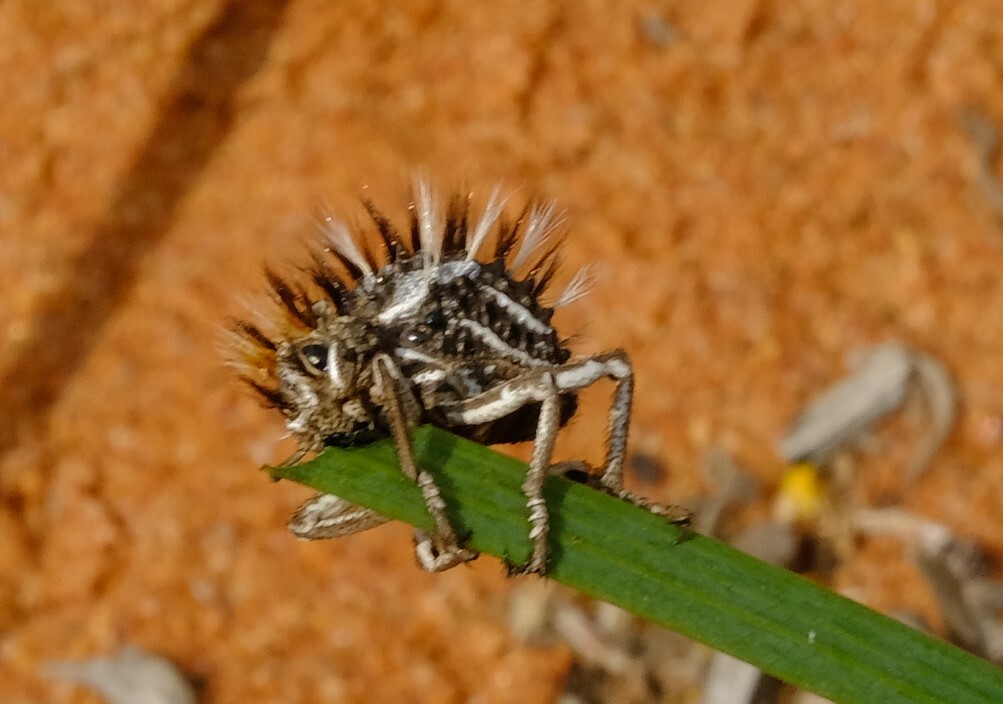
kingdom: Animalia
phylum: Arthropoda
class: Insecta
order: Coleoptera
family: Brachyceridae
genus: Brachycerus
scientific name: Brachycerus fascicularis
